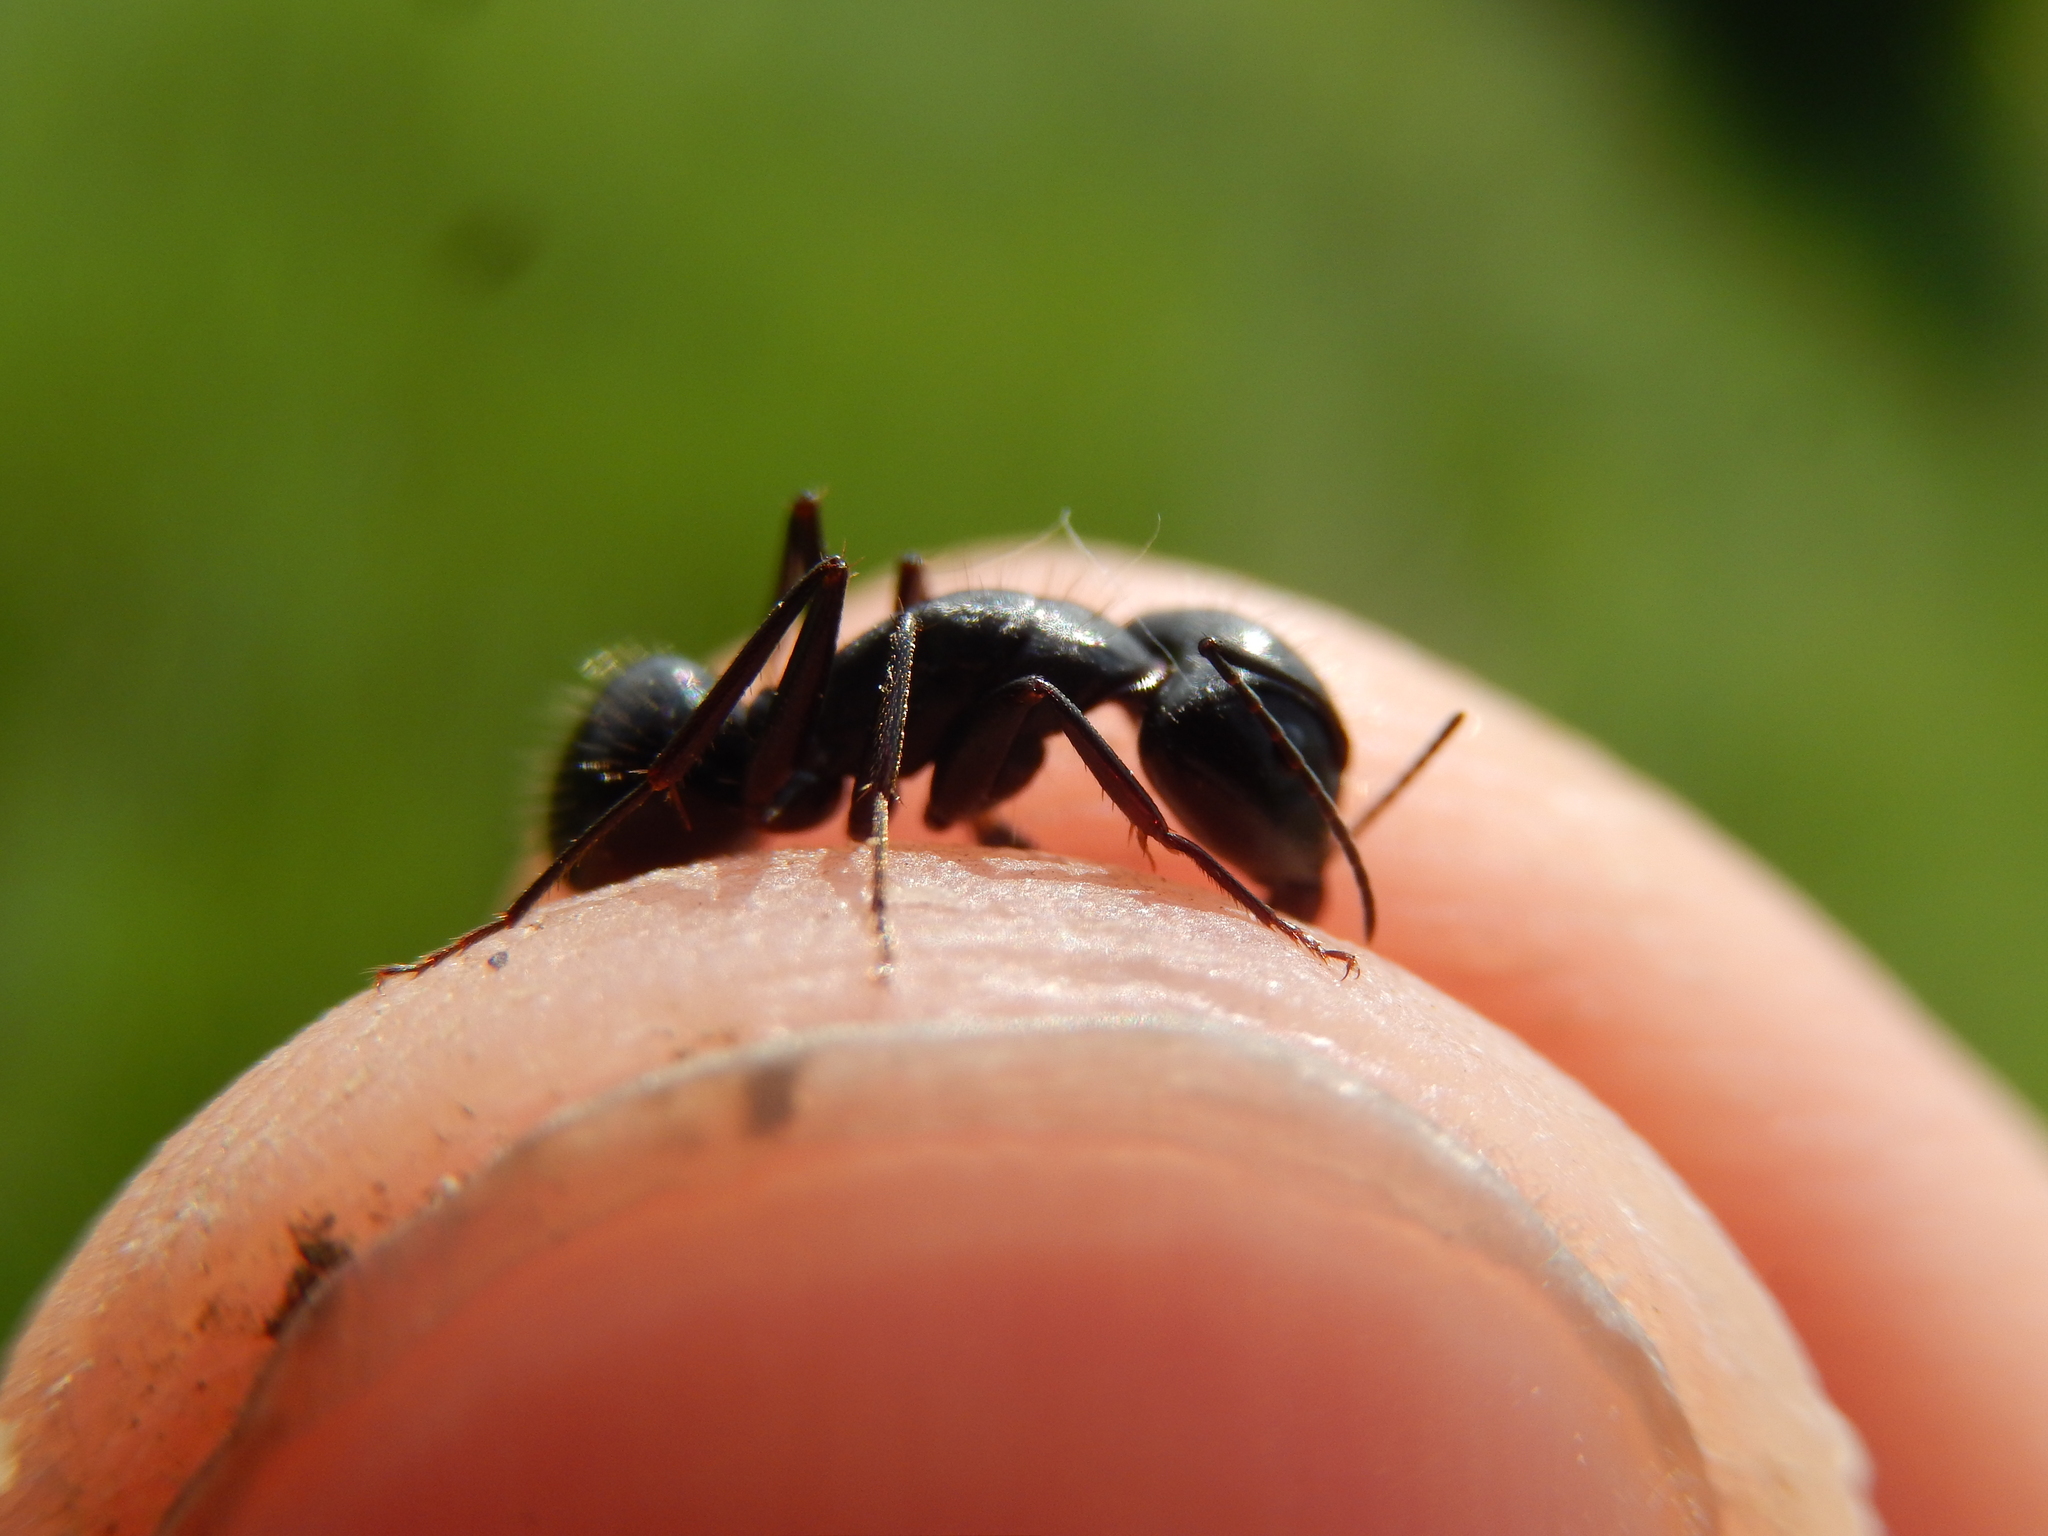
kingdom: Animalia
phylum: Arthropoda
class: Insecta
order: Hymenoptera
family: Formicidae
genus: Camponotus
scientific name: Camponotus aethiops
